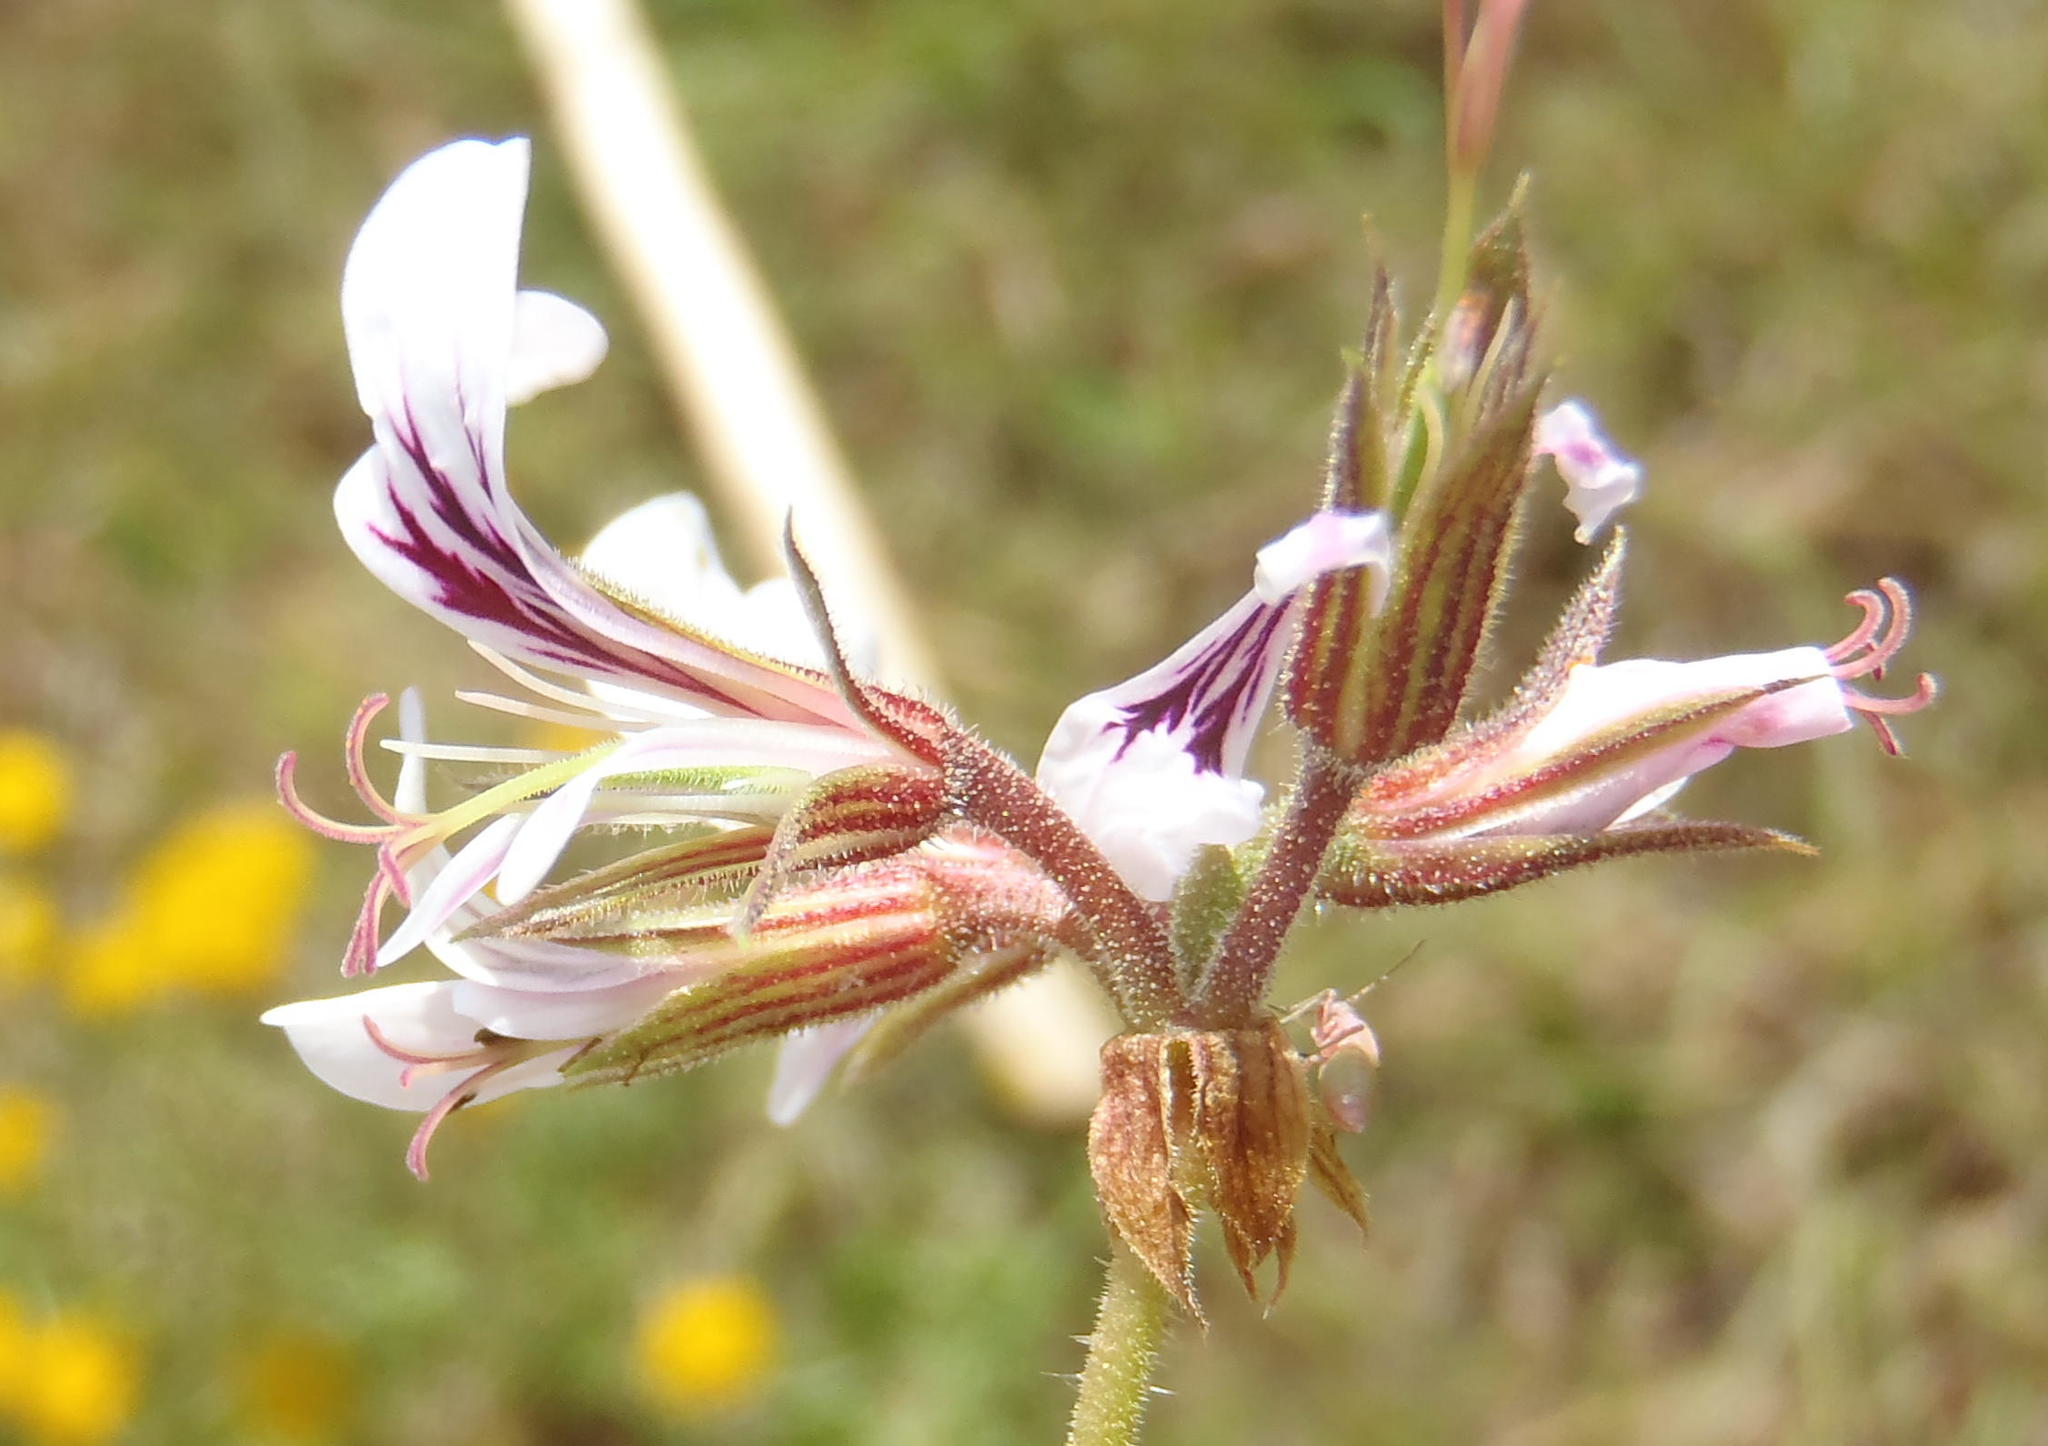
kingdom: Plantae
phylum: Tracheophyta
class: Magnoliopsida
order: Geraniales
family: Geraniaceae
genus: Pelargonium
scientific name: Pelargonium candicans
